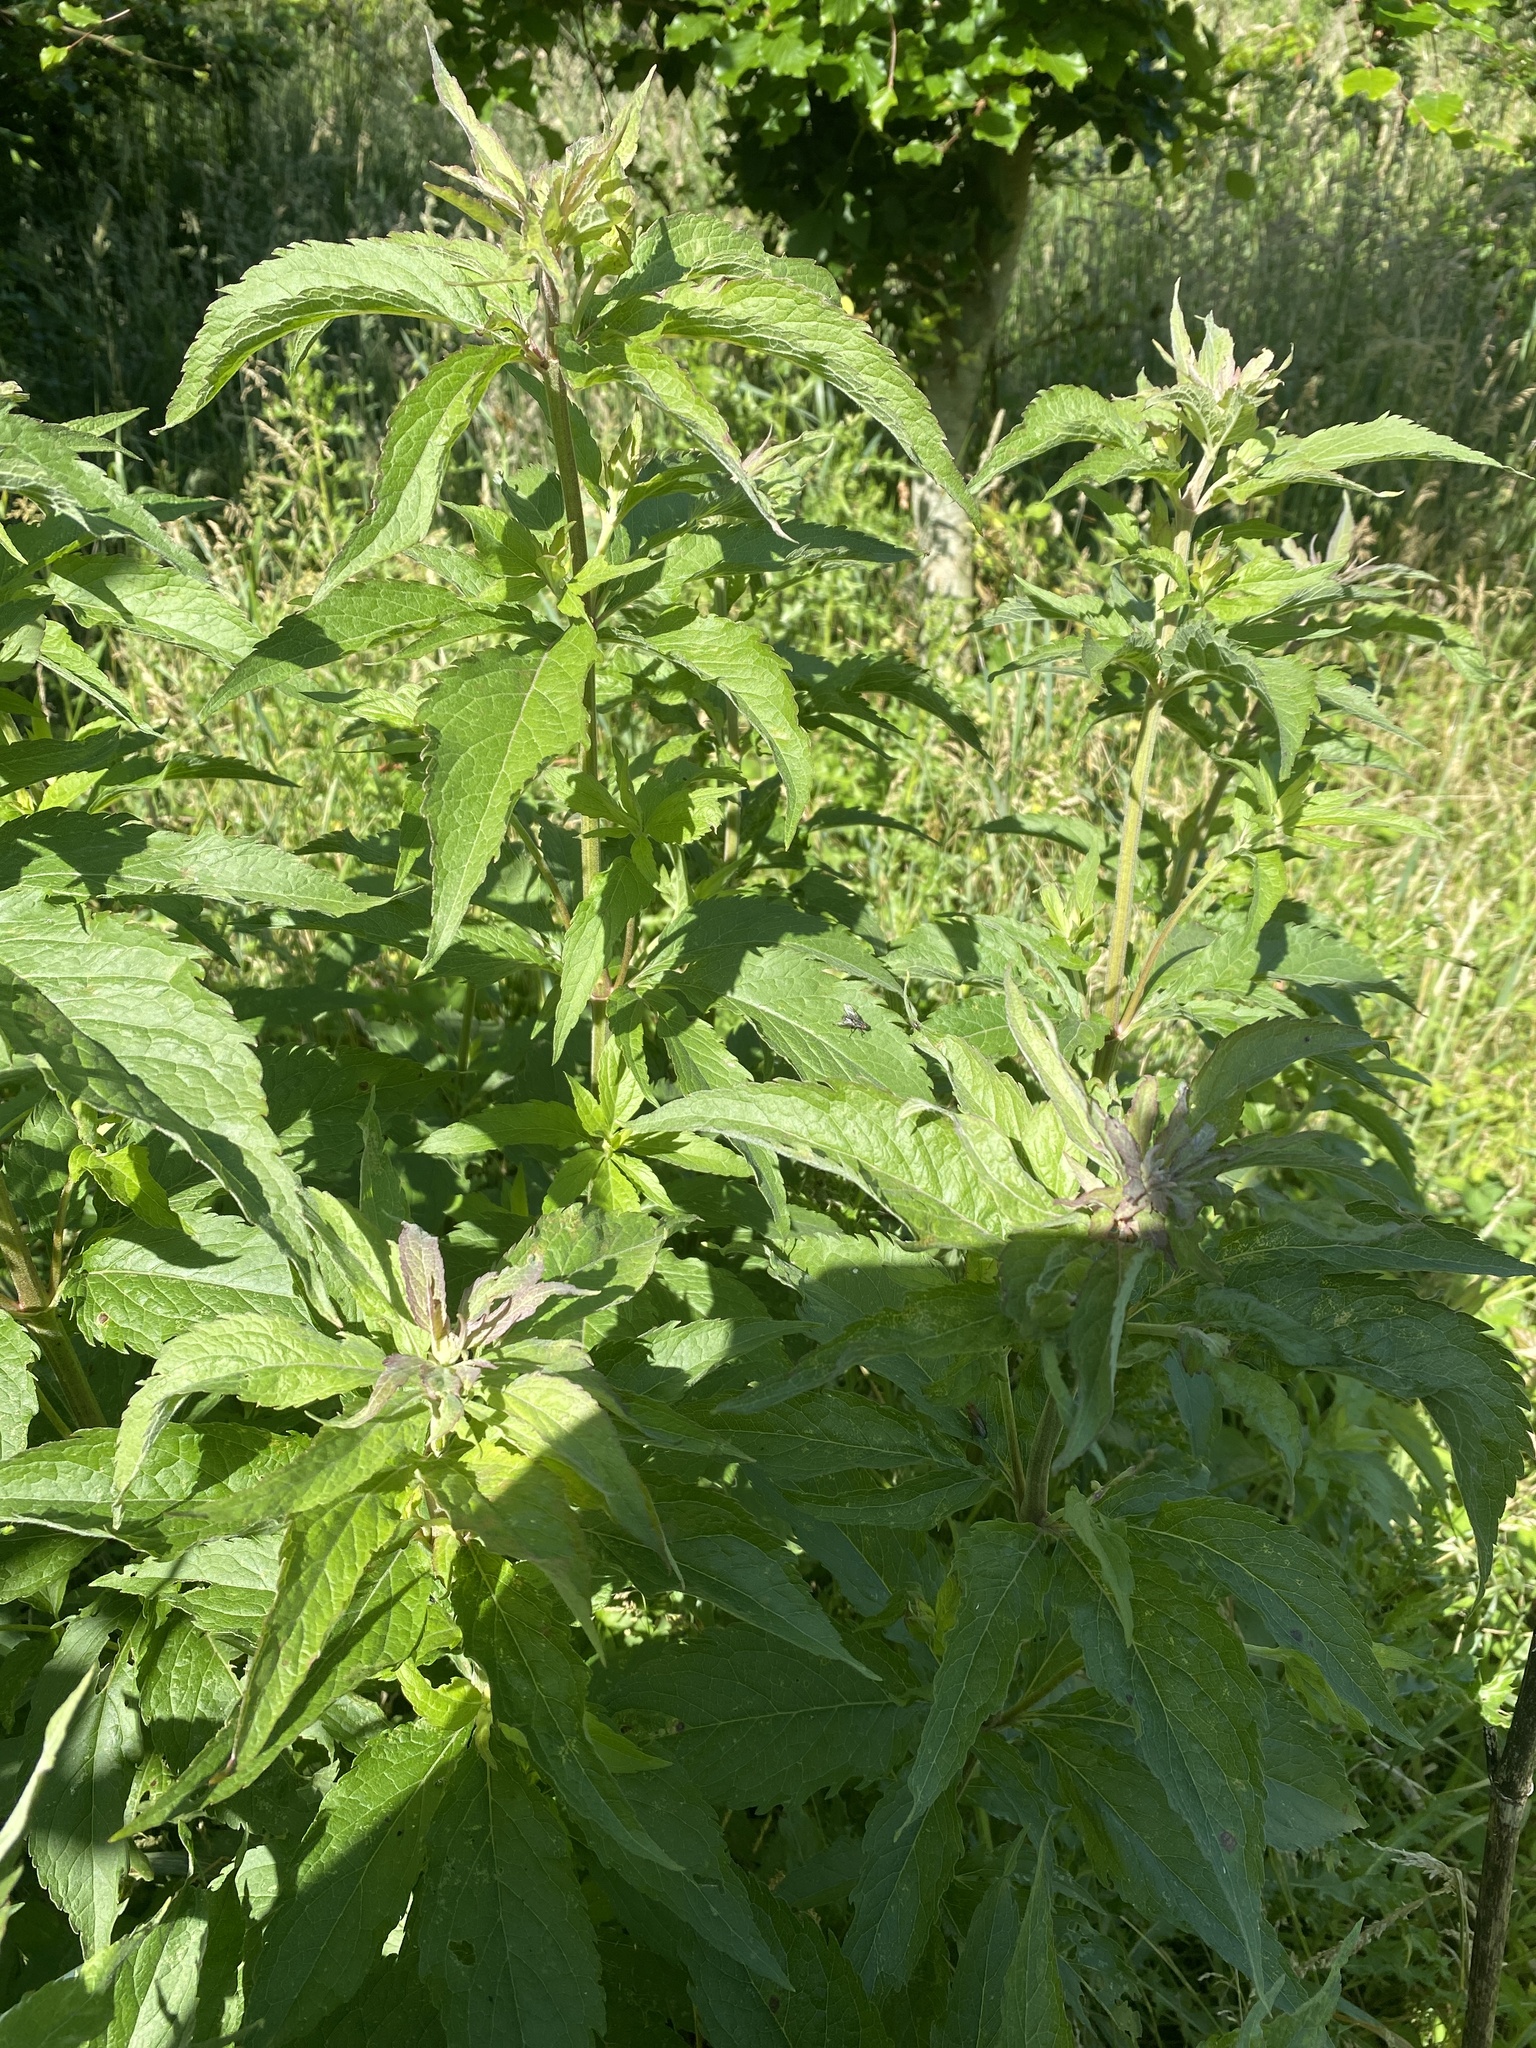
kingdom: Plantae
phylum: Tracheophyta
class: Magnoliopsida
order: Asterales
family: Asteraceae
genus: Eupatorium
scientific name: Eupatorium cannabinum
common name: Hemp-agrimony
